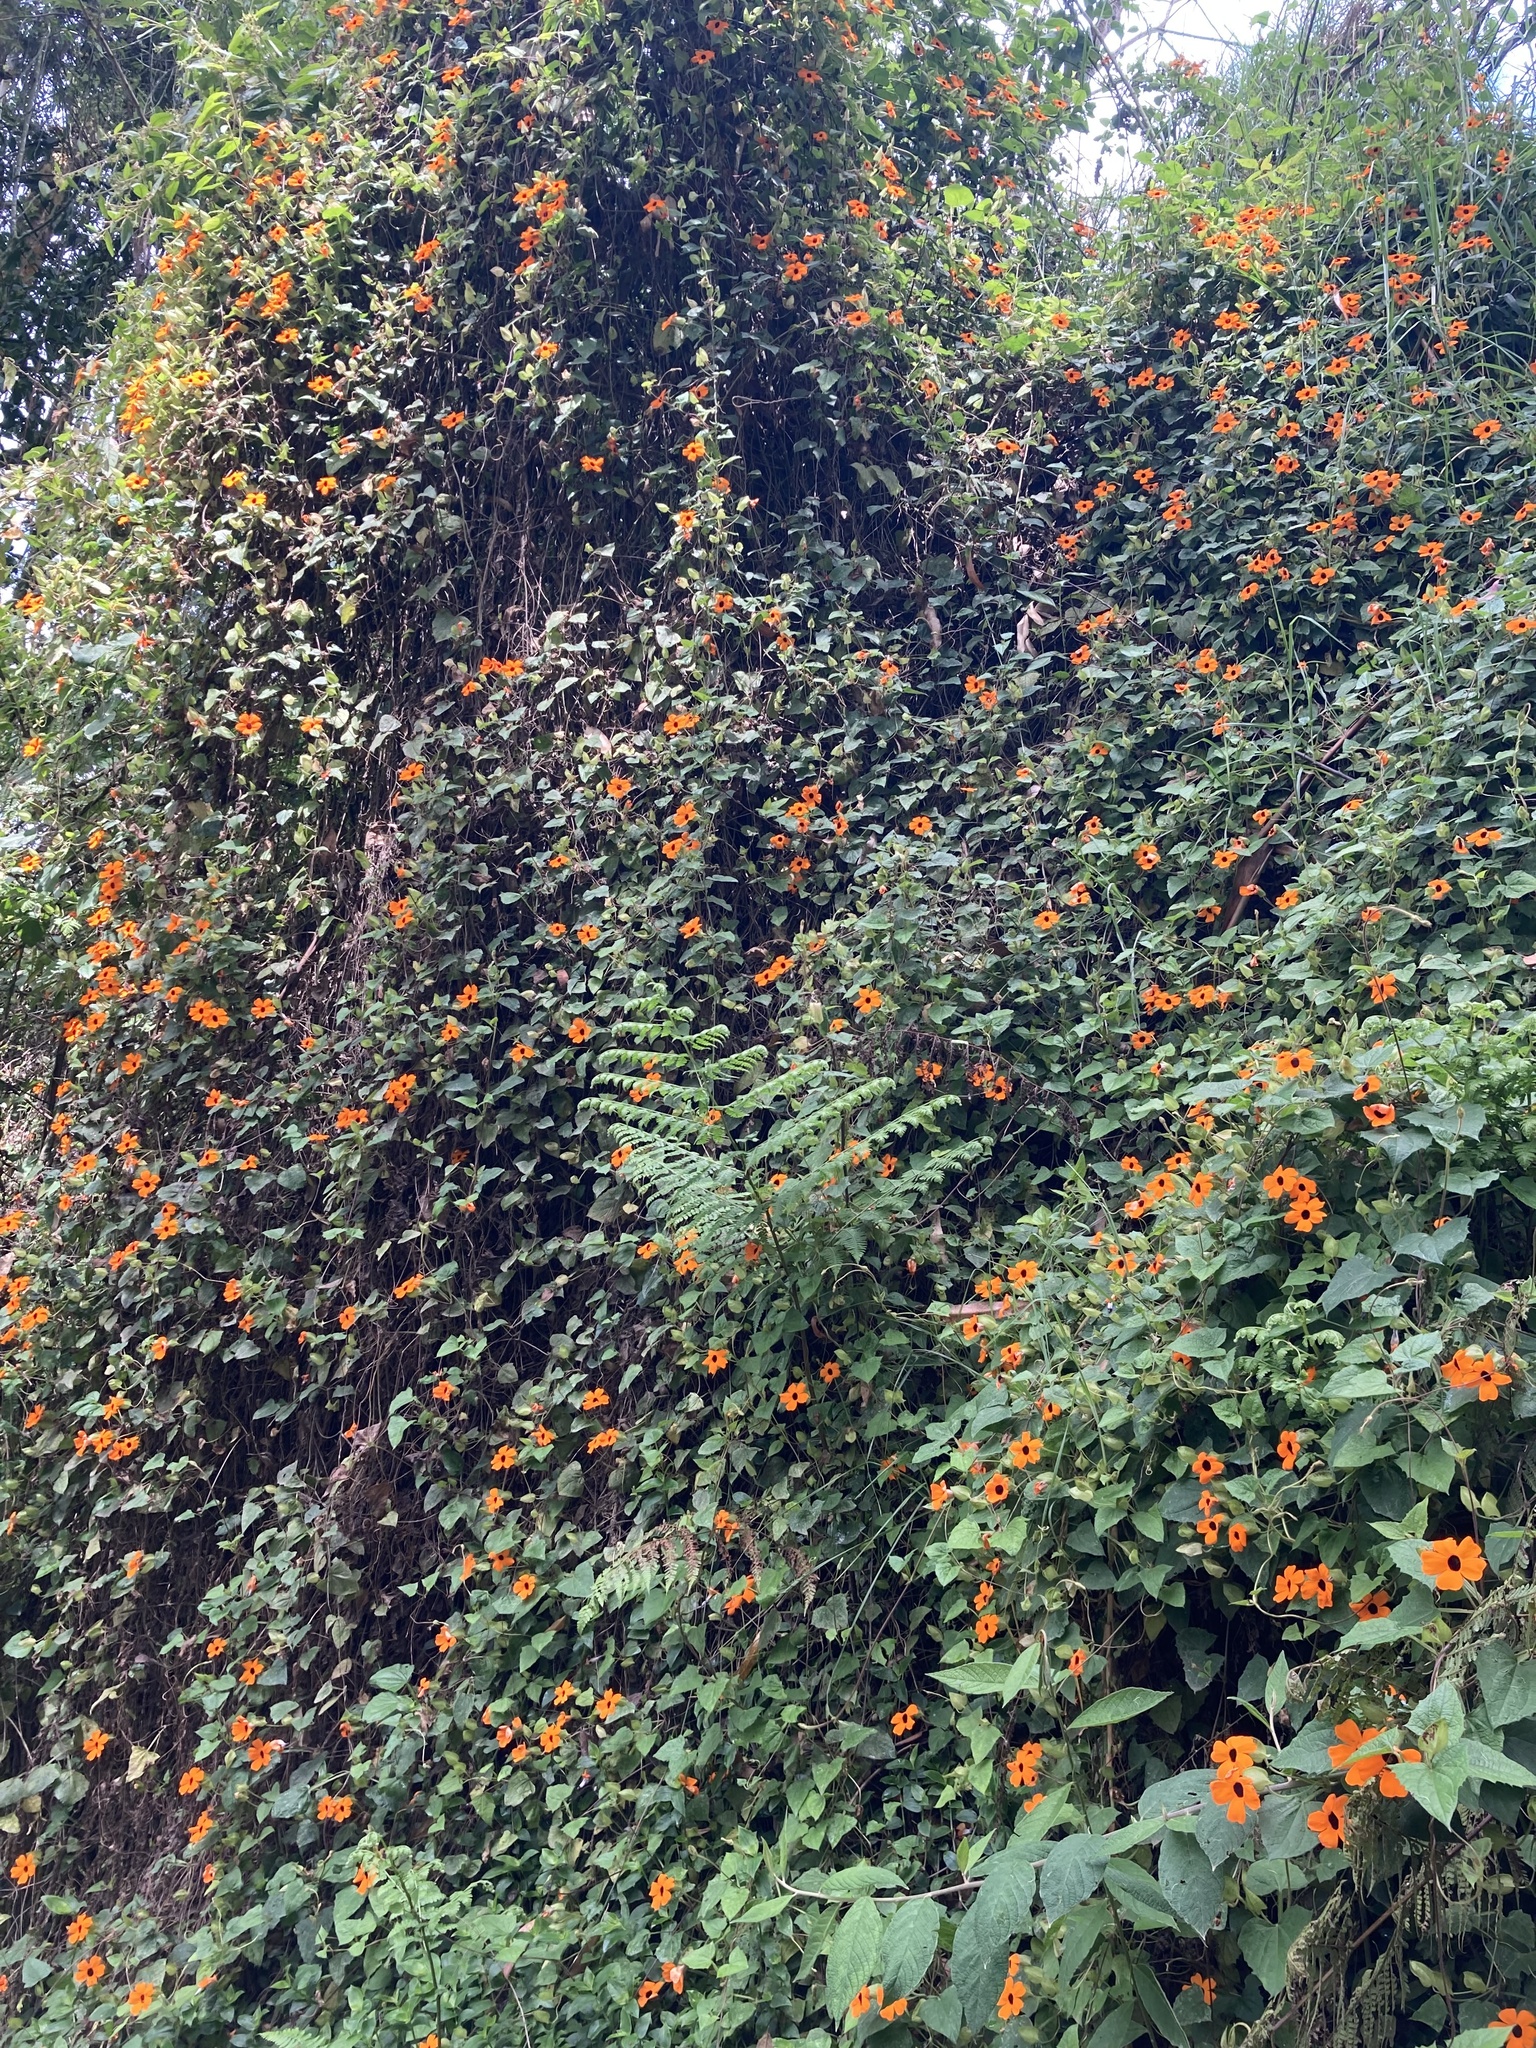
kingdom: Plantae
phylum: Tracheophyta
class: Magnoliopsida
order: Lamiales
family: Acanthaceae
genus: Thunbergia
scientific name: Thunbergia alata
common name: Blackeyed susan vine
